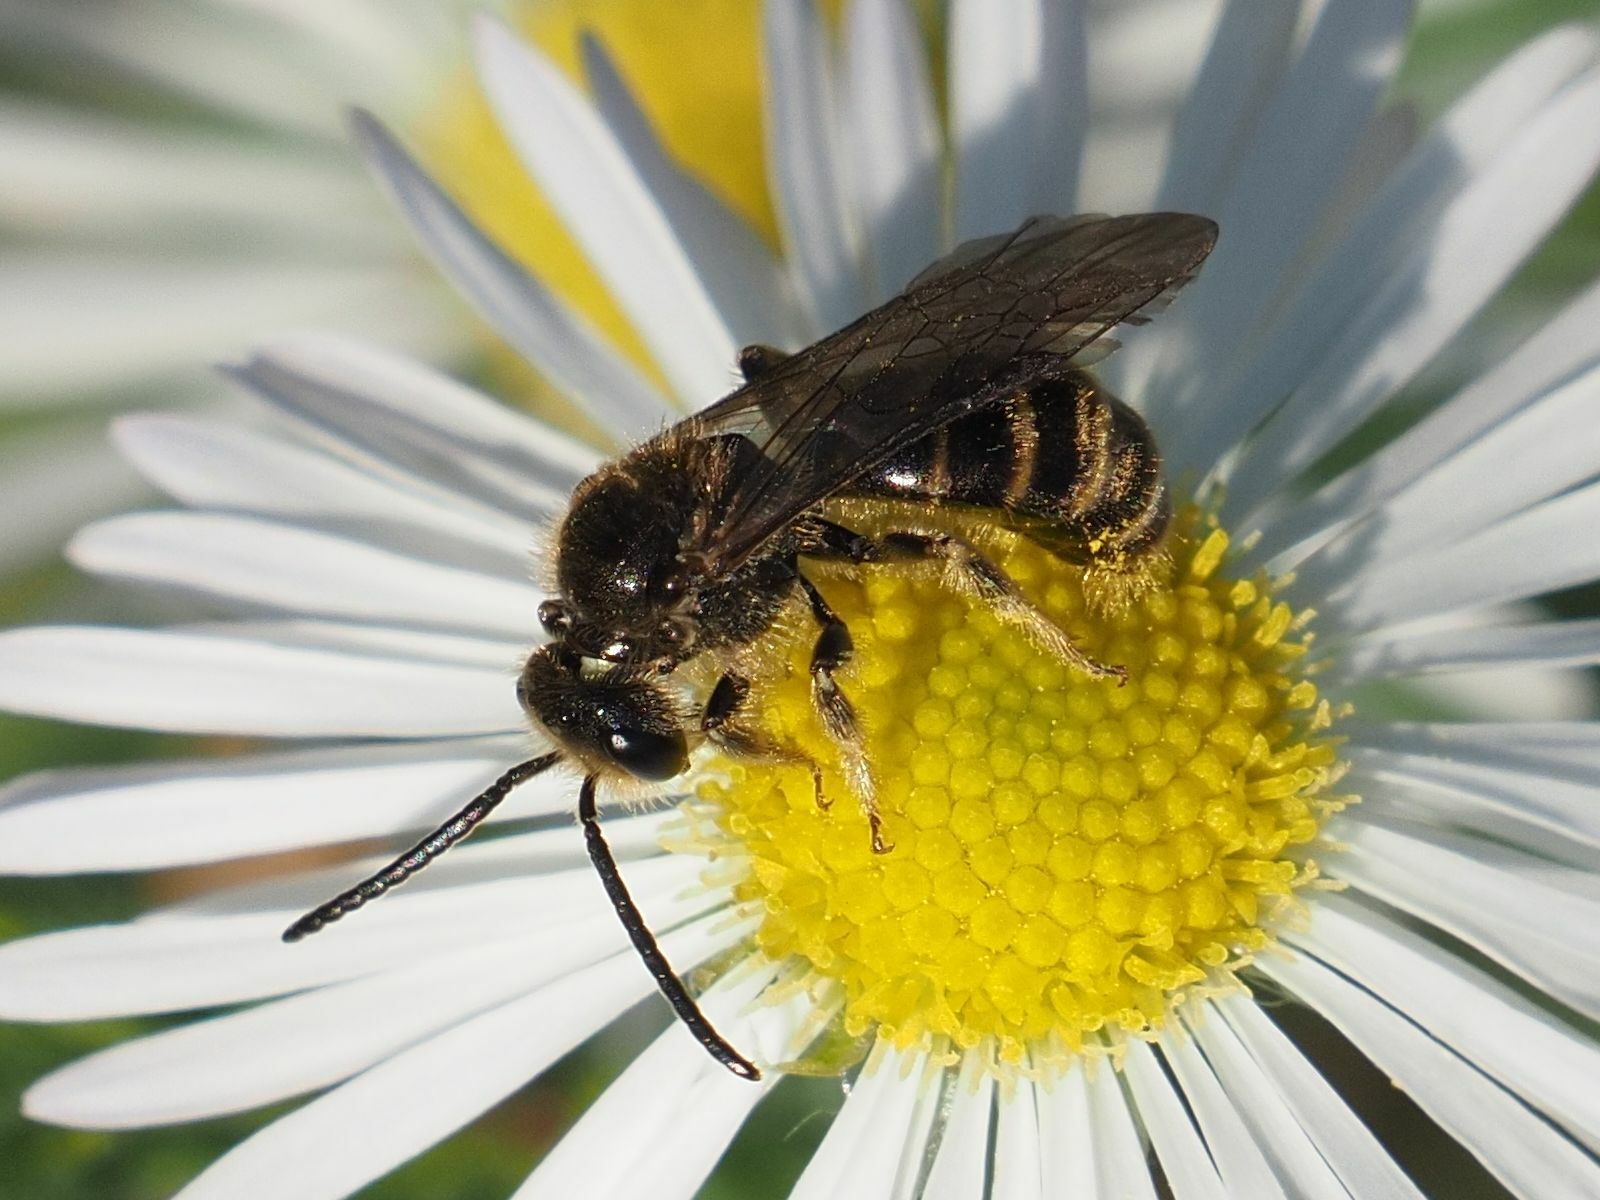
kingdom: Animalia
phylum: Arthropoda
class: Insecta
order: Hymenoptera
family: Halictidae
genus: Lasioglossum
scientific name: Lasioglossum marginatum
